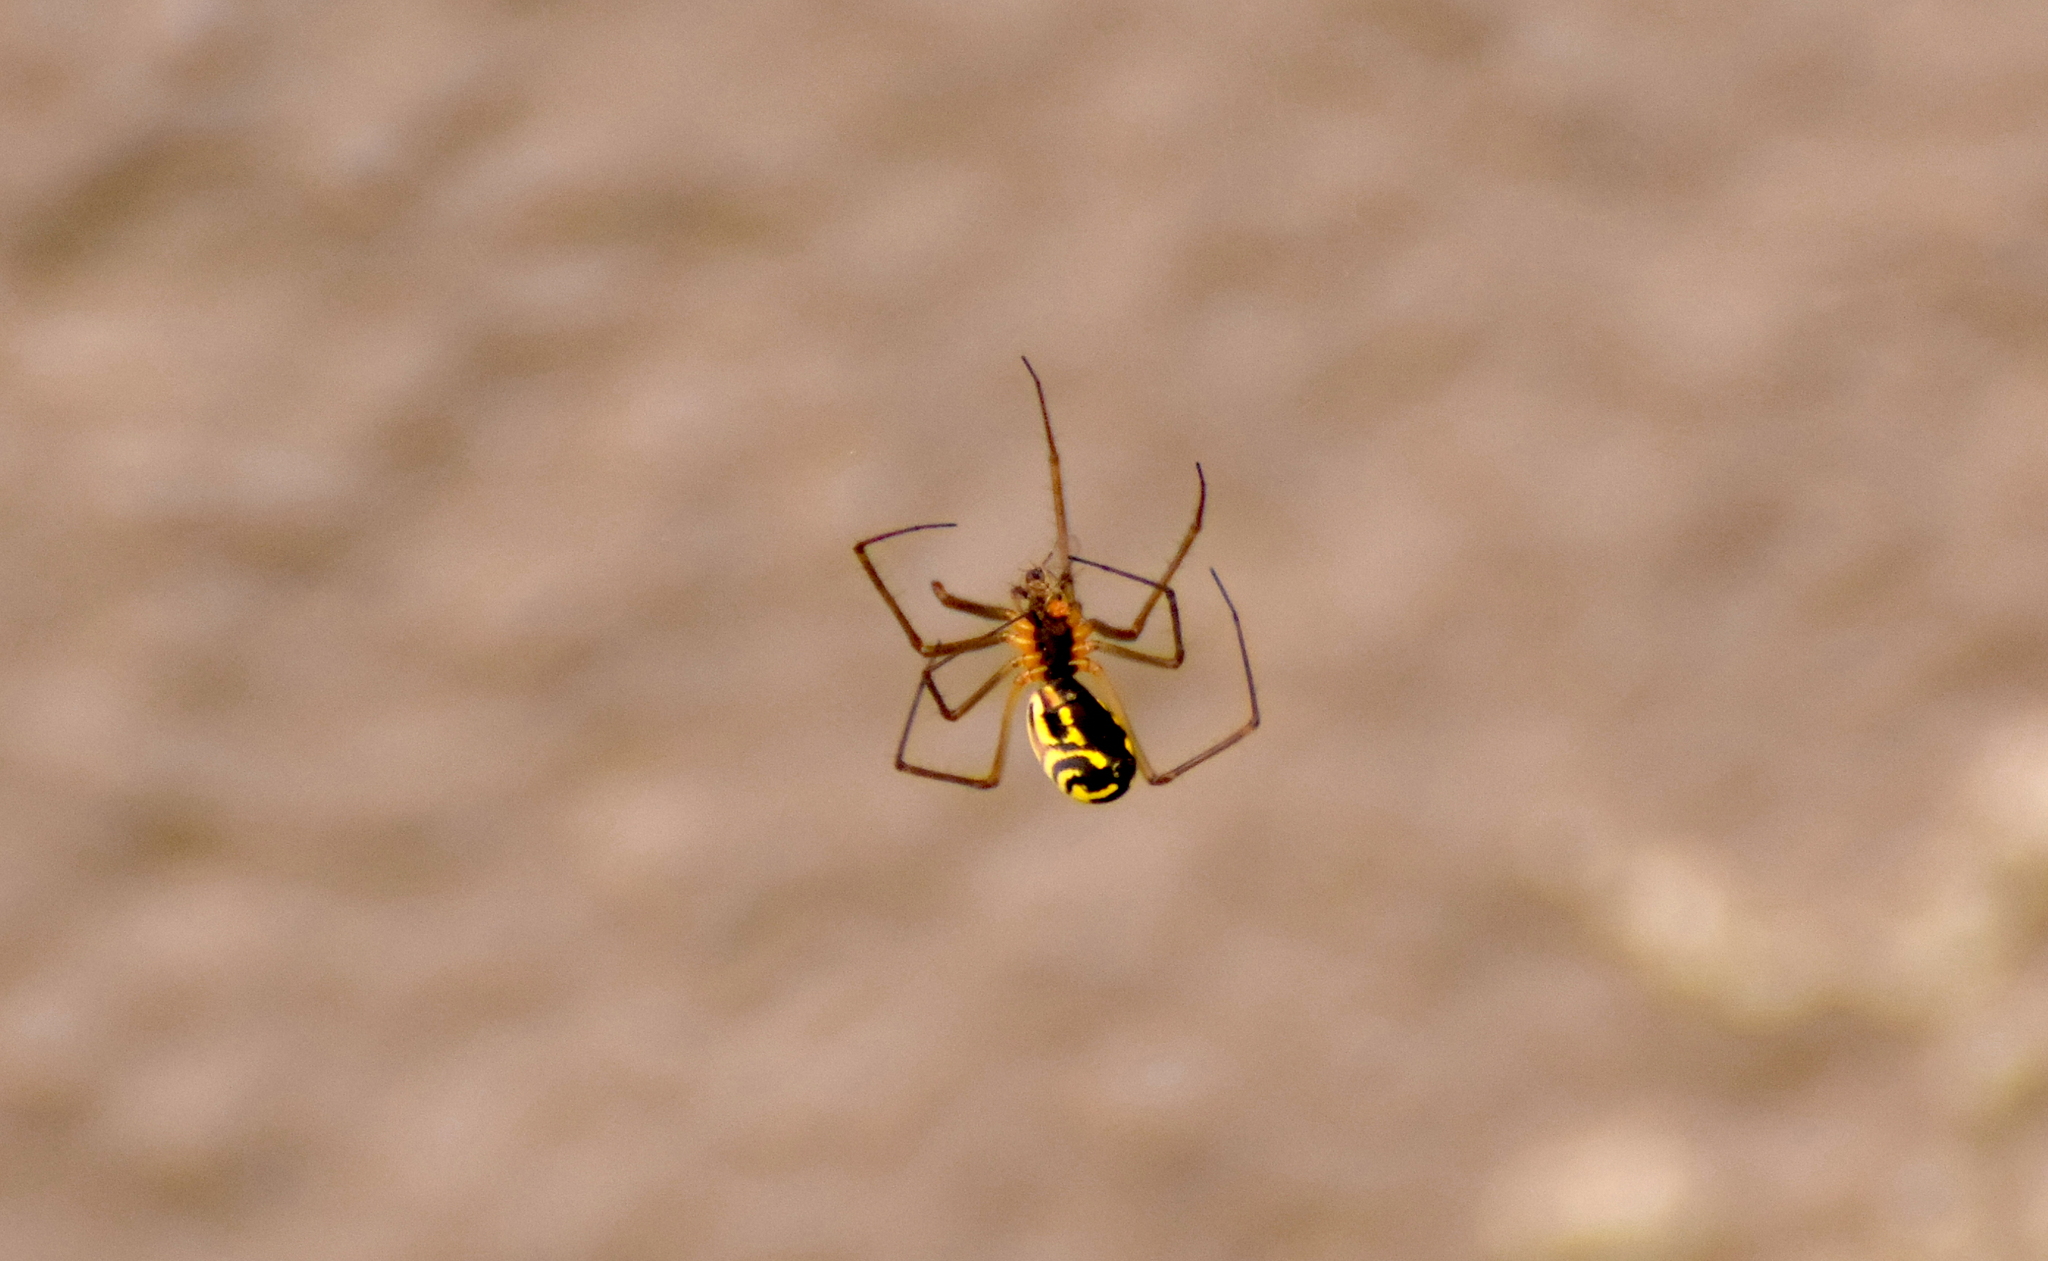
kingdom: Animalia
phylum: Arthropoda
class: Arachnida
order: Araneae
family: Linyphiidae
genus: Neriene
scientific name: Neriene radiata
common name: Filmy dome spider
